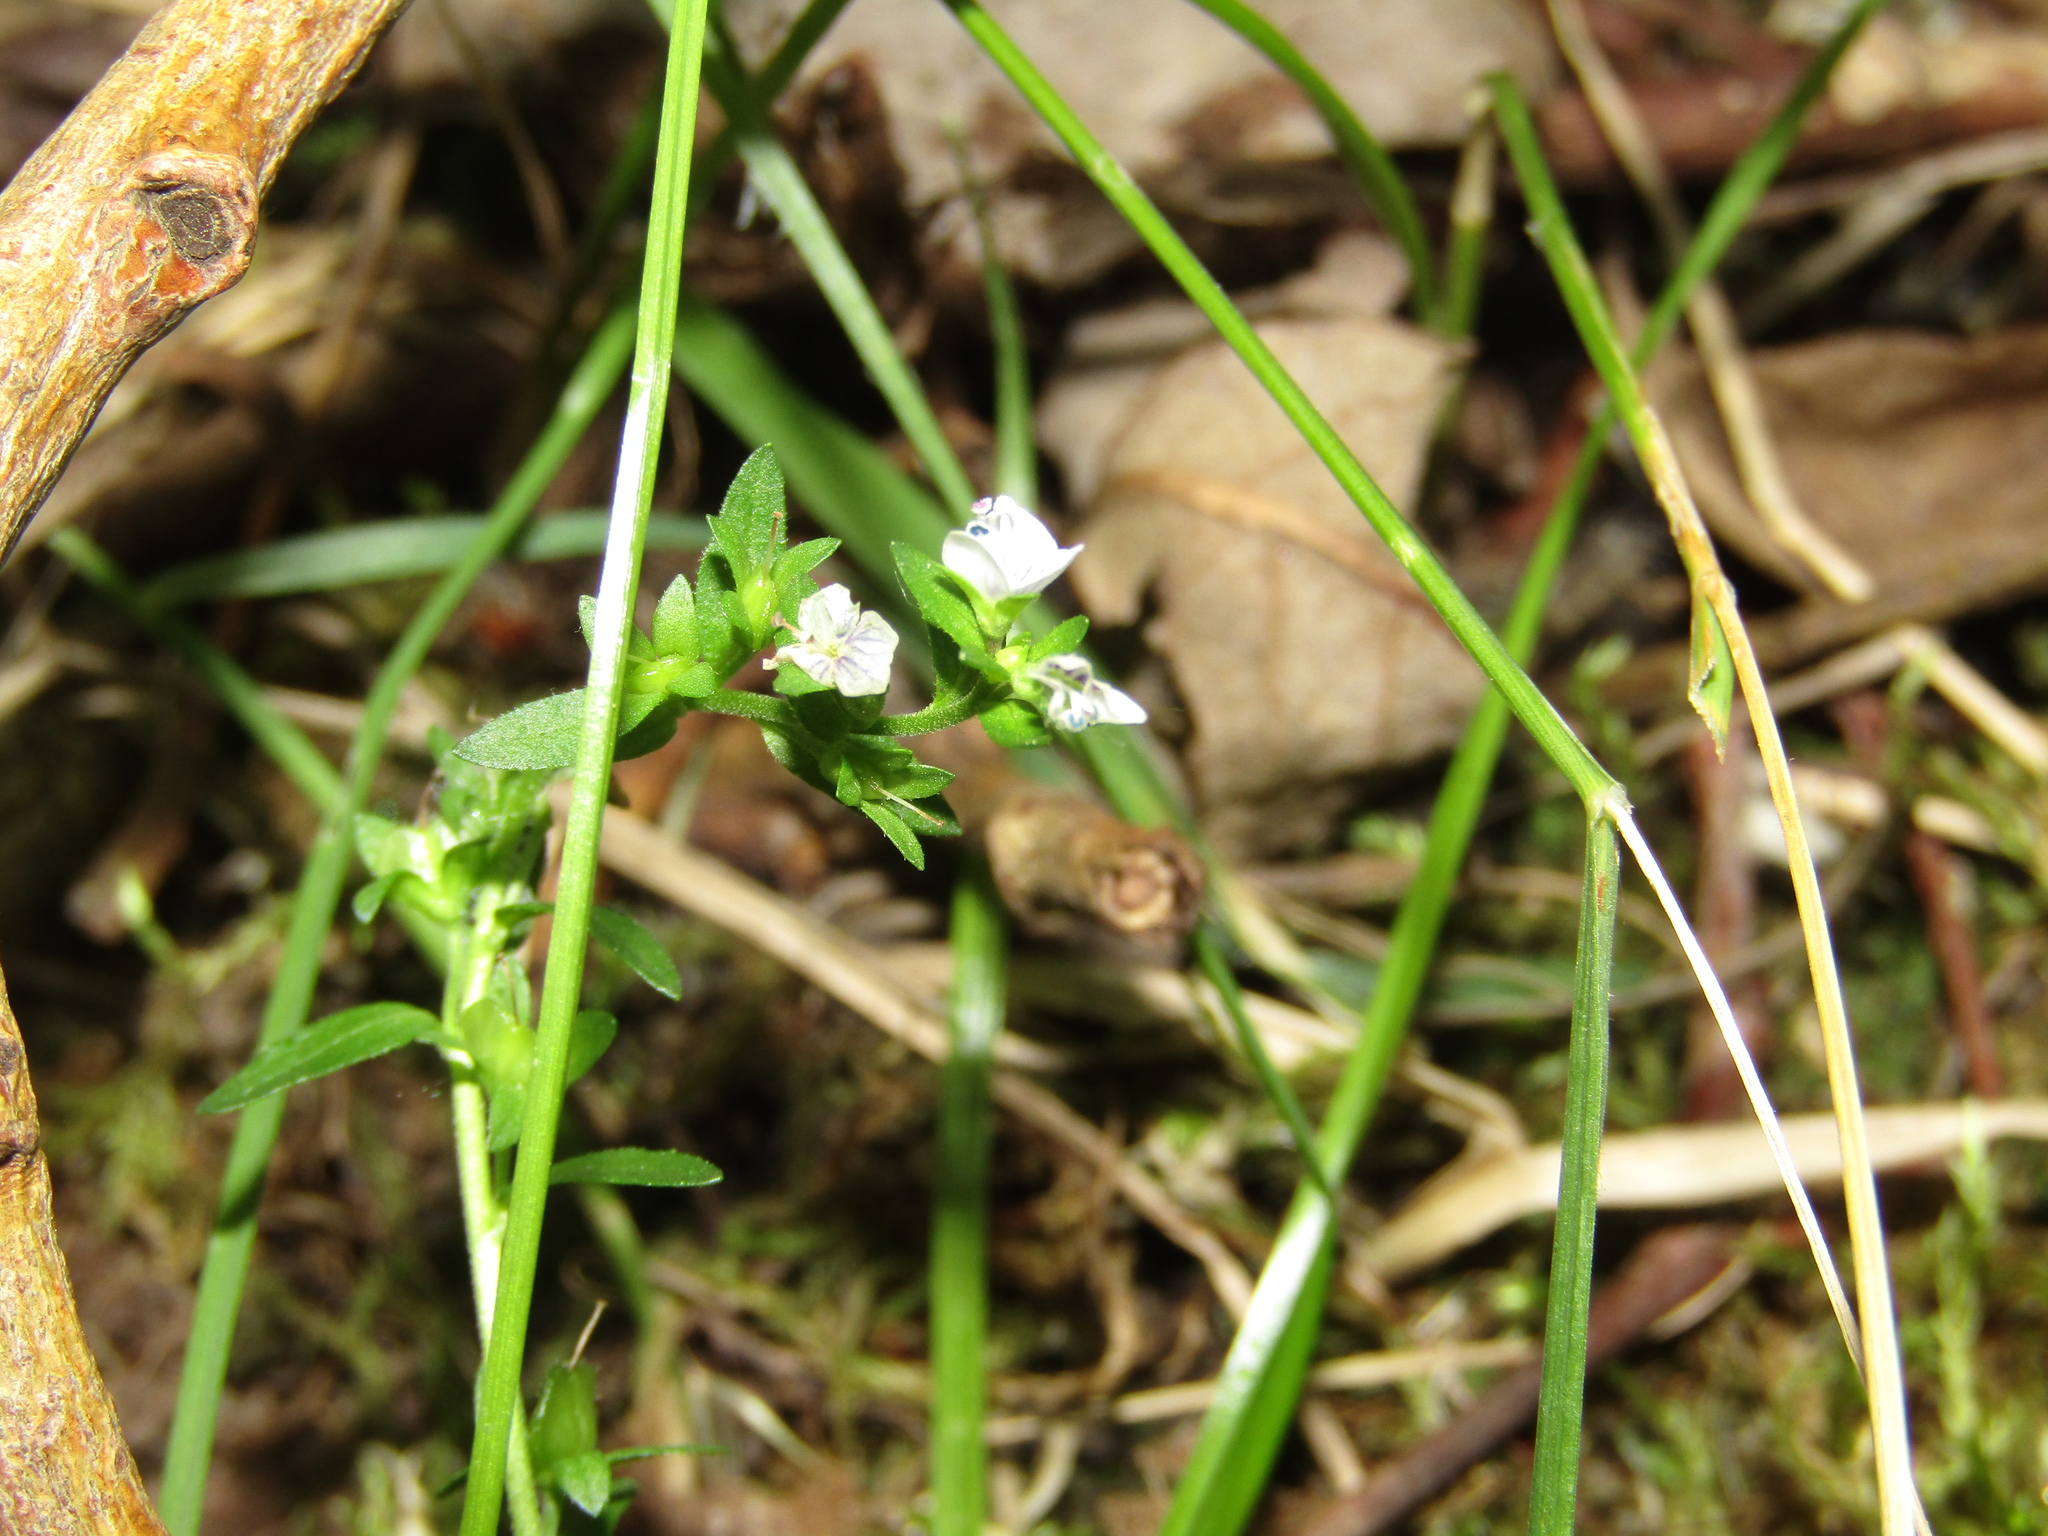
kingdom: Plantae
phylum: Tracheophyta
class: Magnoliopsida
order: Lamiales
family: Plantaginaceae
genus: Veronica
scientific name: Veronica serpyllifolia
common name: Thyme-leaved speedwell
